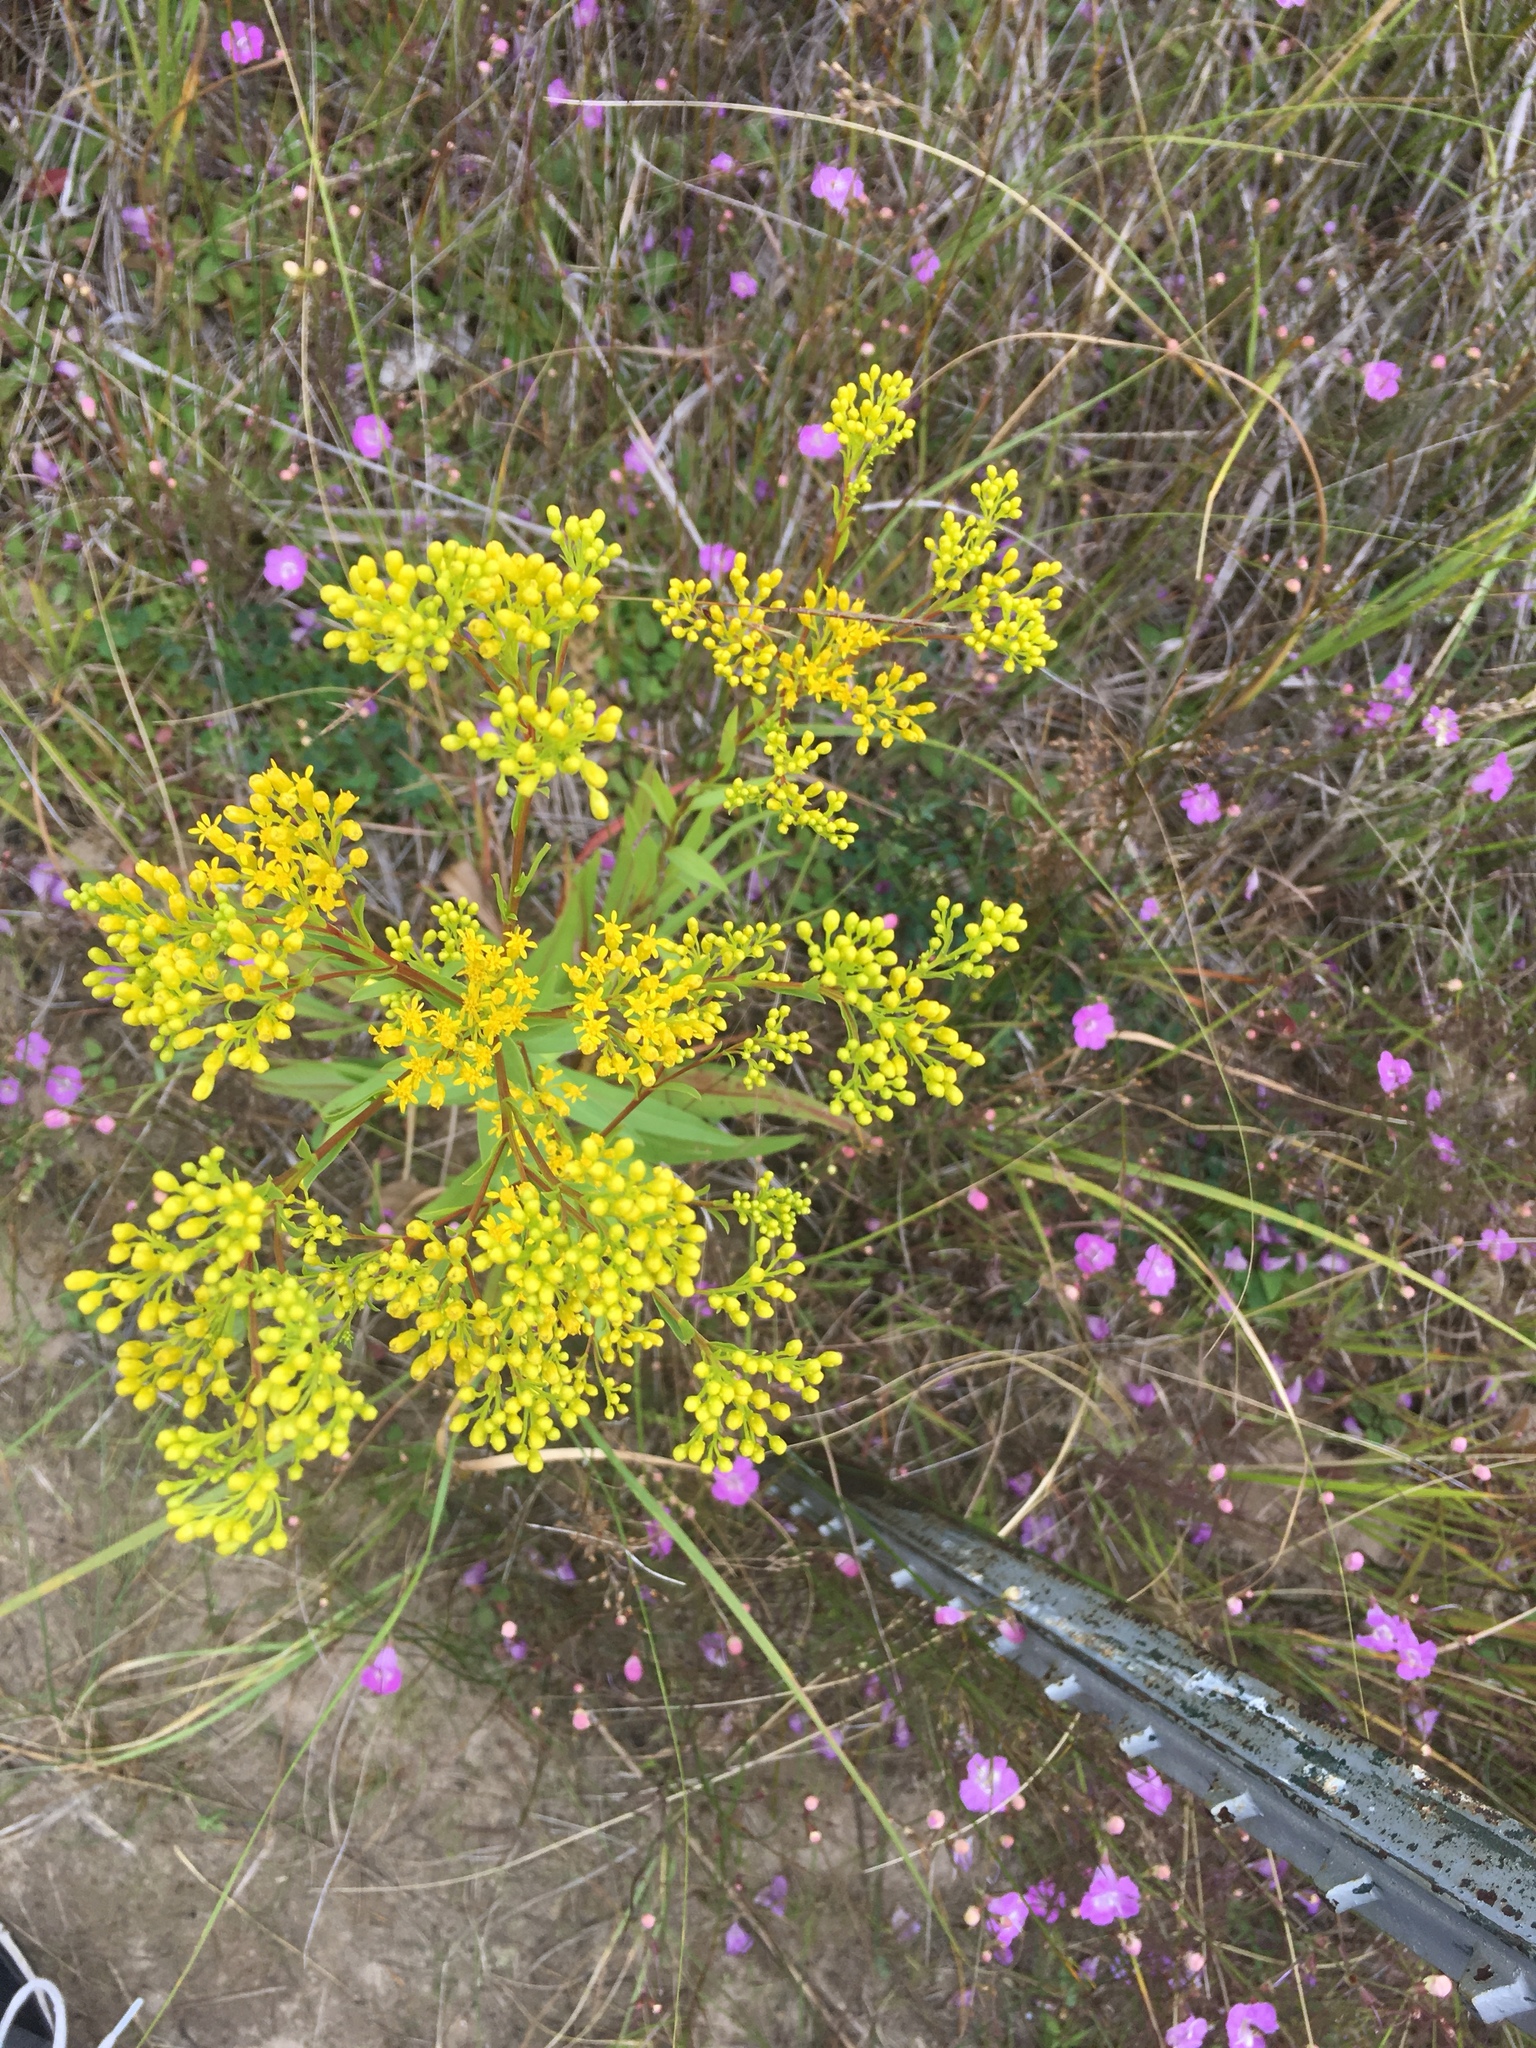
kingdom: Plantae
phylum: Tracheophyta
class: Magnoliopsida
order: Asterales
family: Asteraceae
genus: Solidago
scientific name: Solidago ohioensis
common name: Ohio goldenrod
